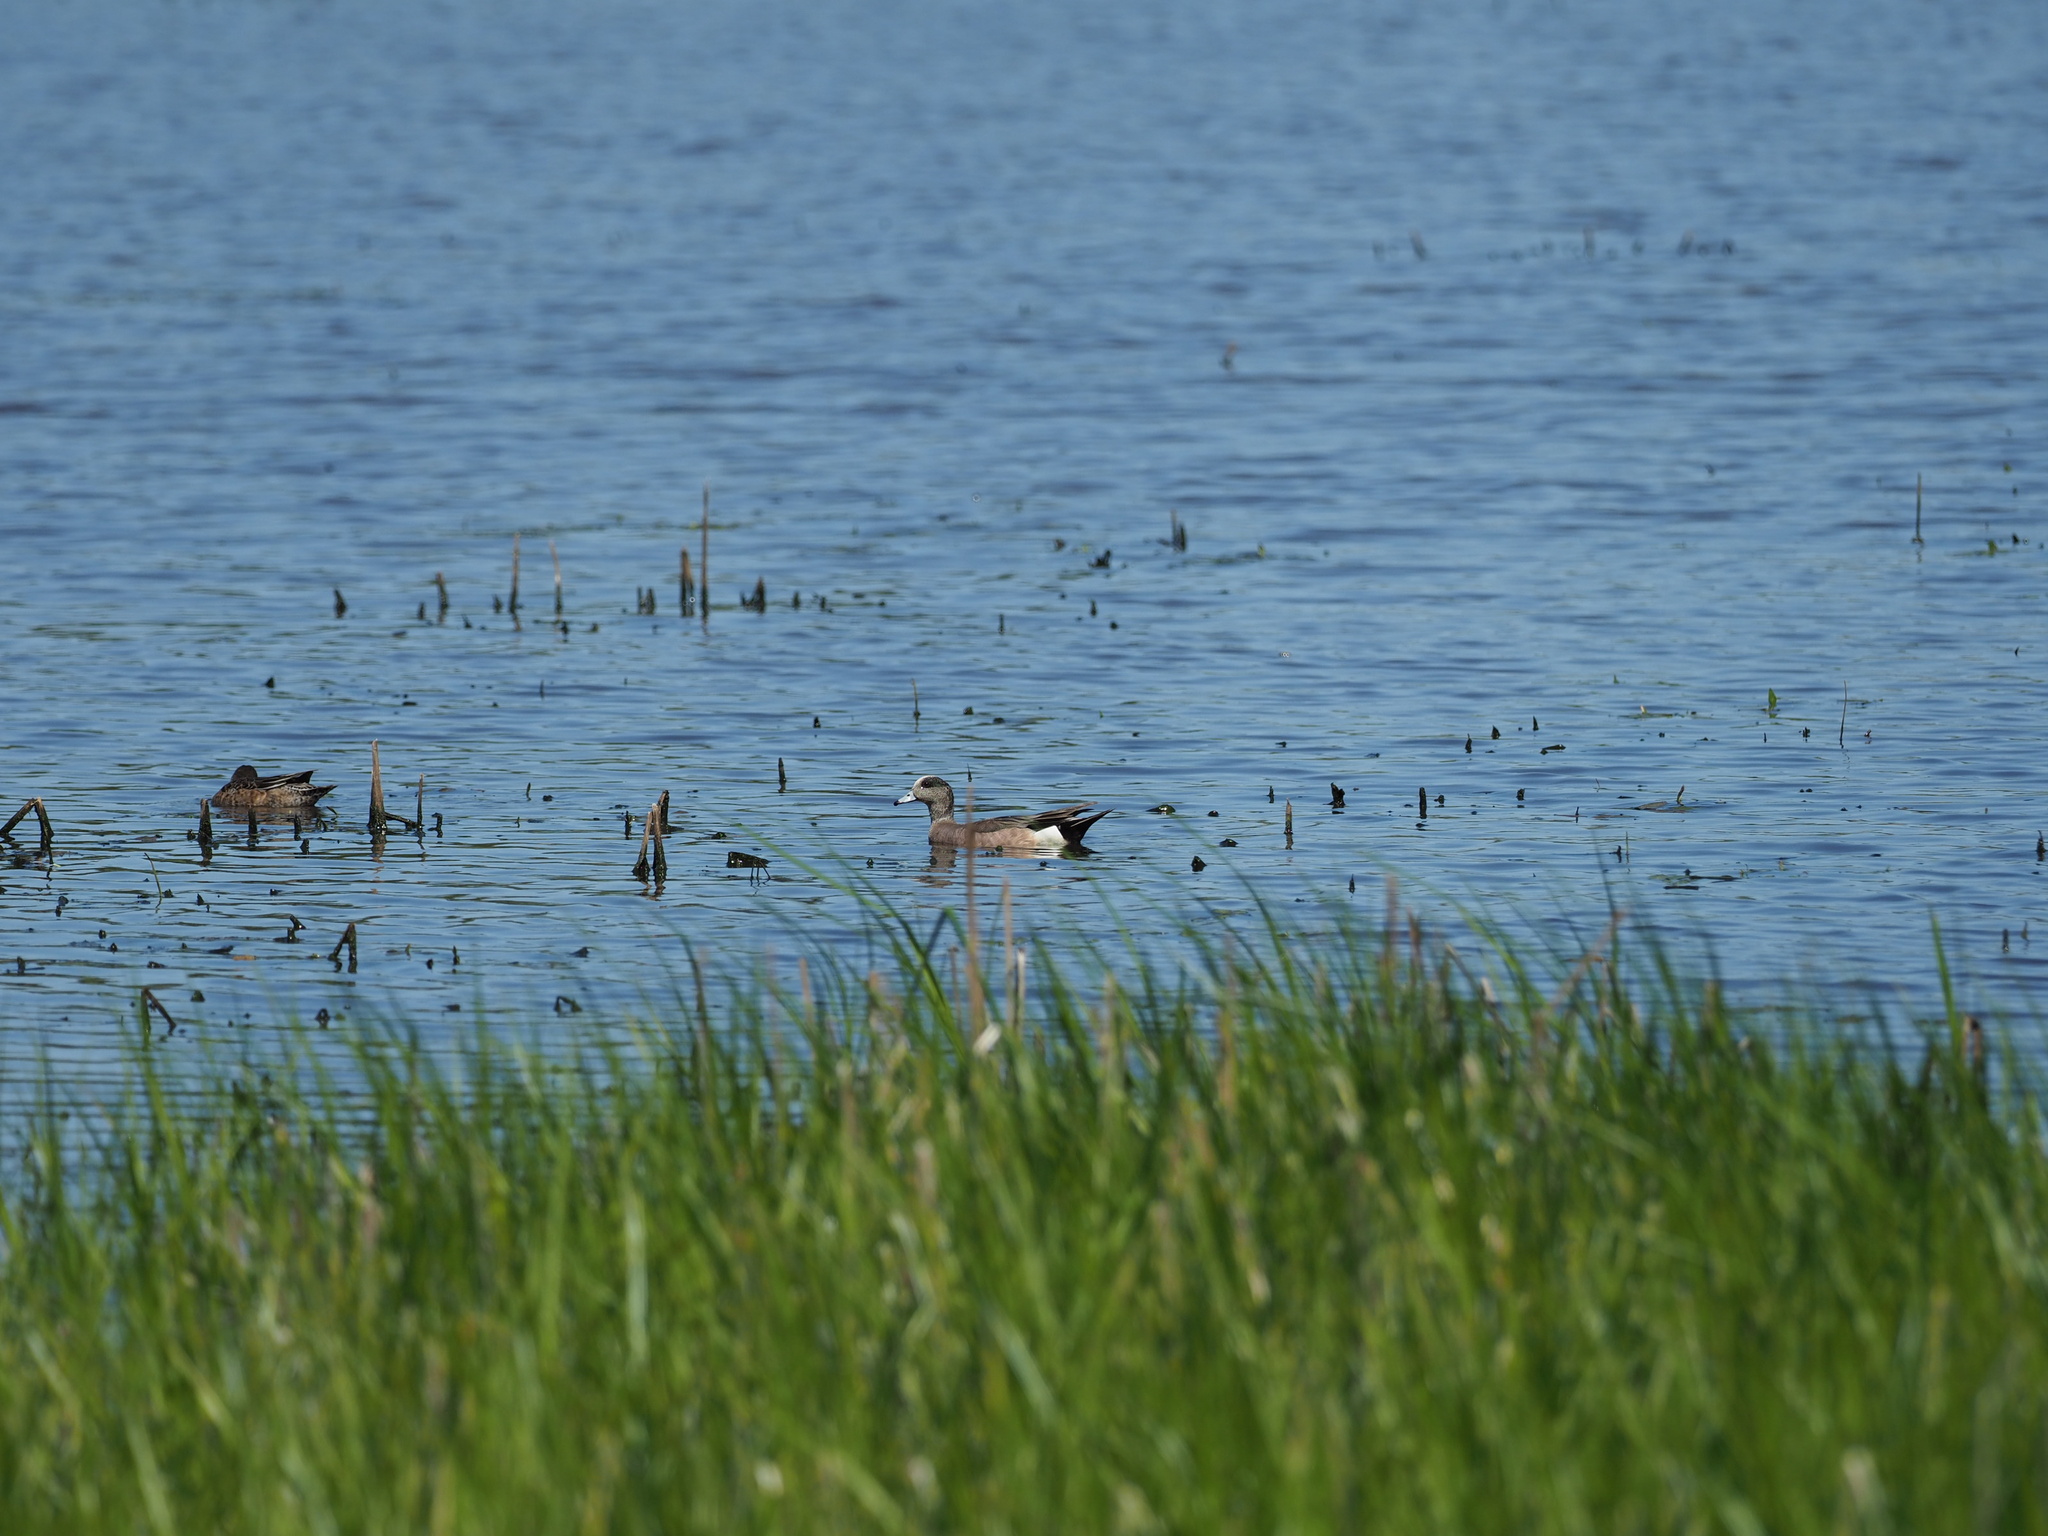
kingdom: Animalia
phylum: Chordata
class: Aves
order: Anseriformes
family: Anatidae
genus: Mareca
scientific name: Mareca americana
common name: American wigeon
